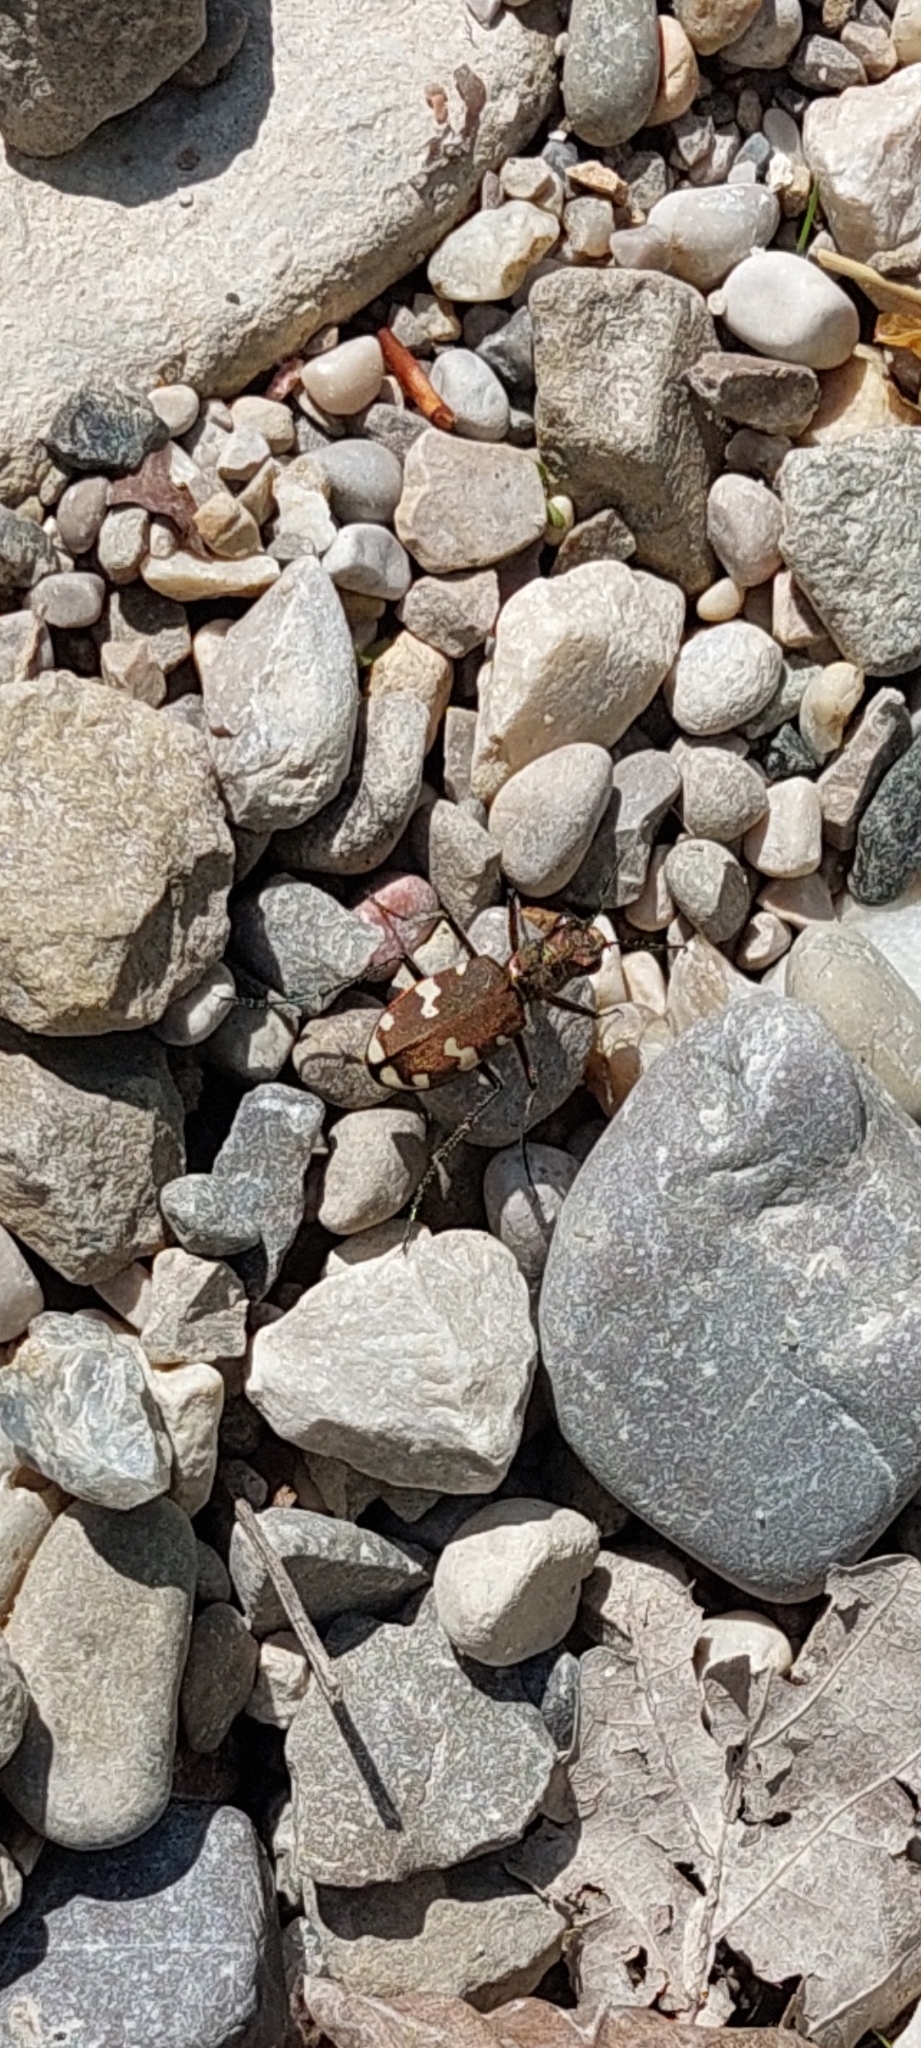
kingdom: Animalia
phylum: Arthropoda
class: Insecta
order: Coleoptera
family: Carabidae
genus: Cicindela
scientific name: Cicindela sylvicola
